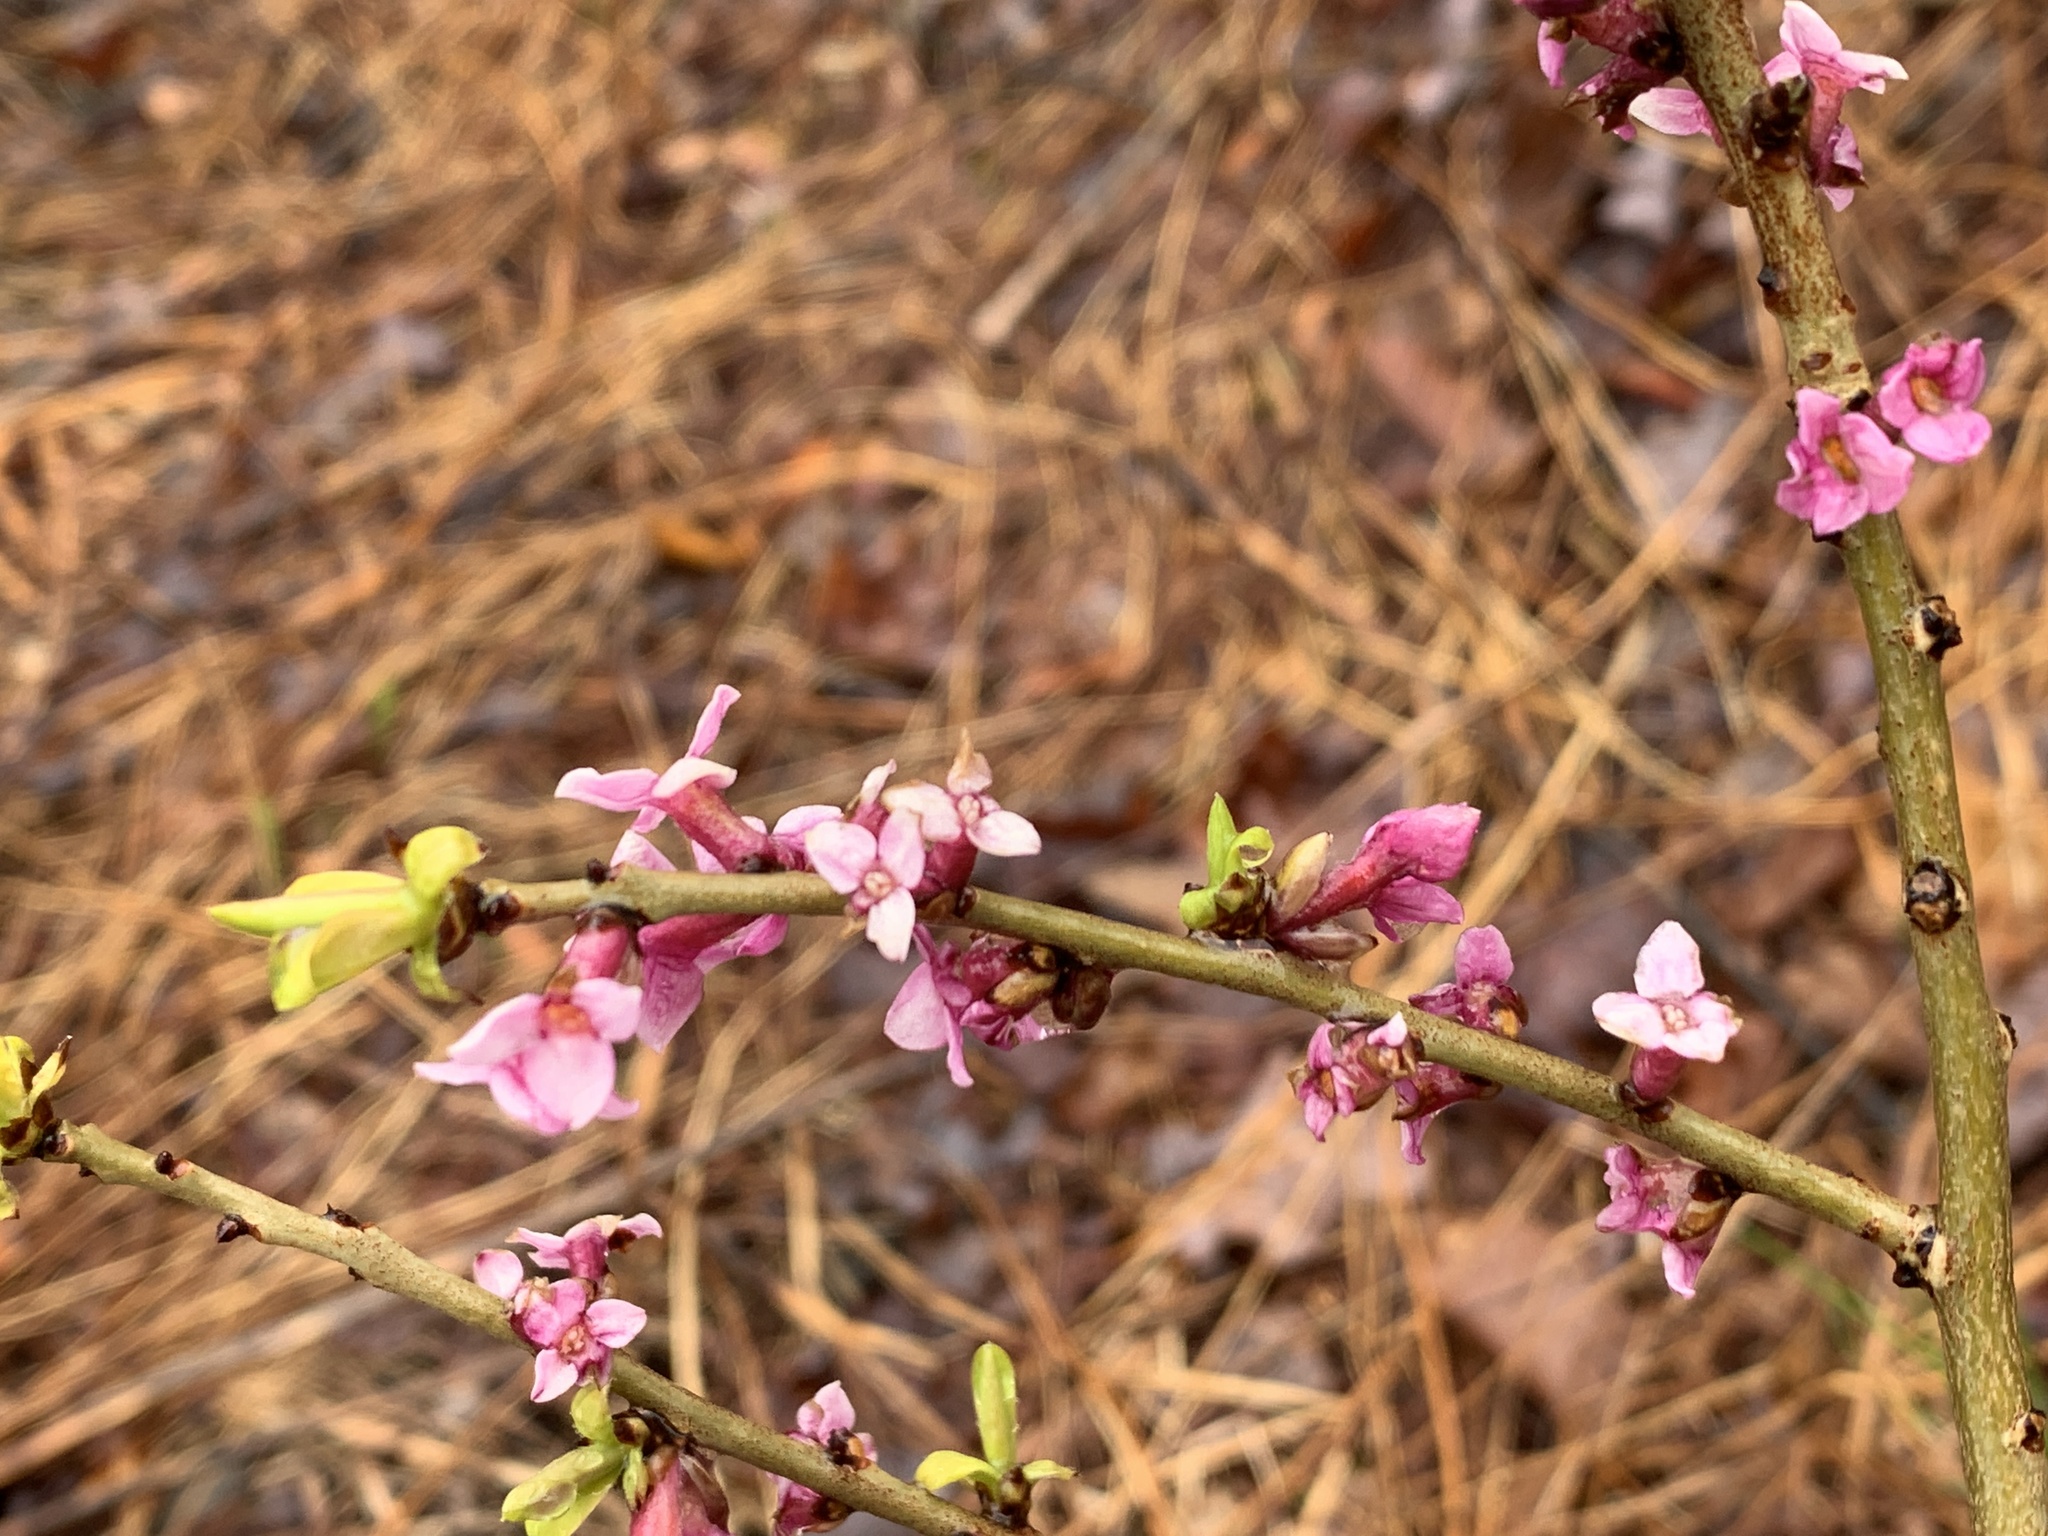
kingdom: Plantae
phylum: Tracheophyta
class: Magnoliopsida
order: Malvales
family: Thymelaeaceae
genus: Daphne
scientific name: Daphne mezereum
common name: Mezereon
